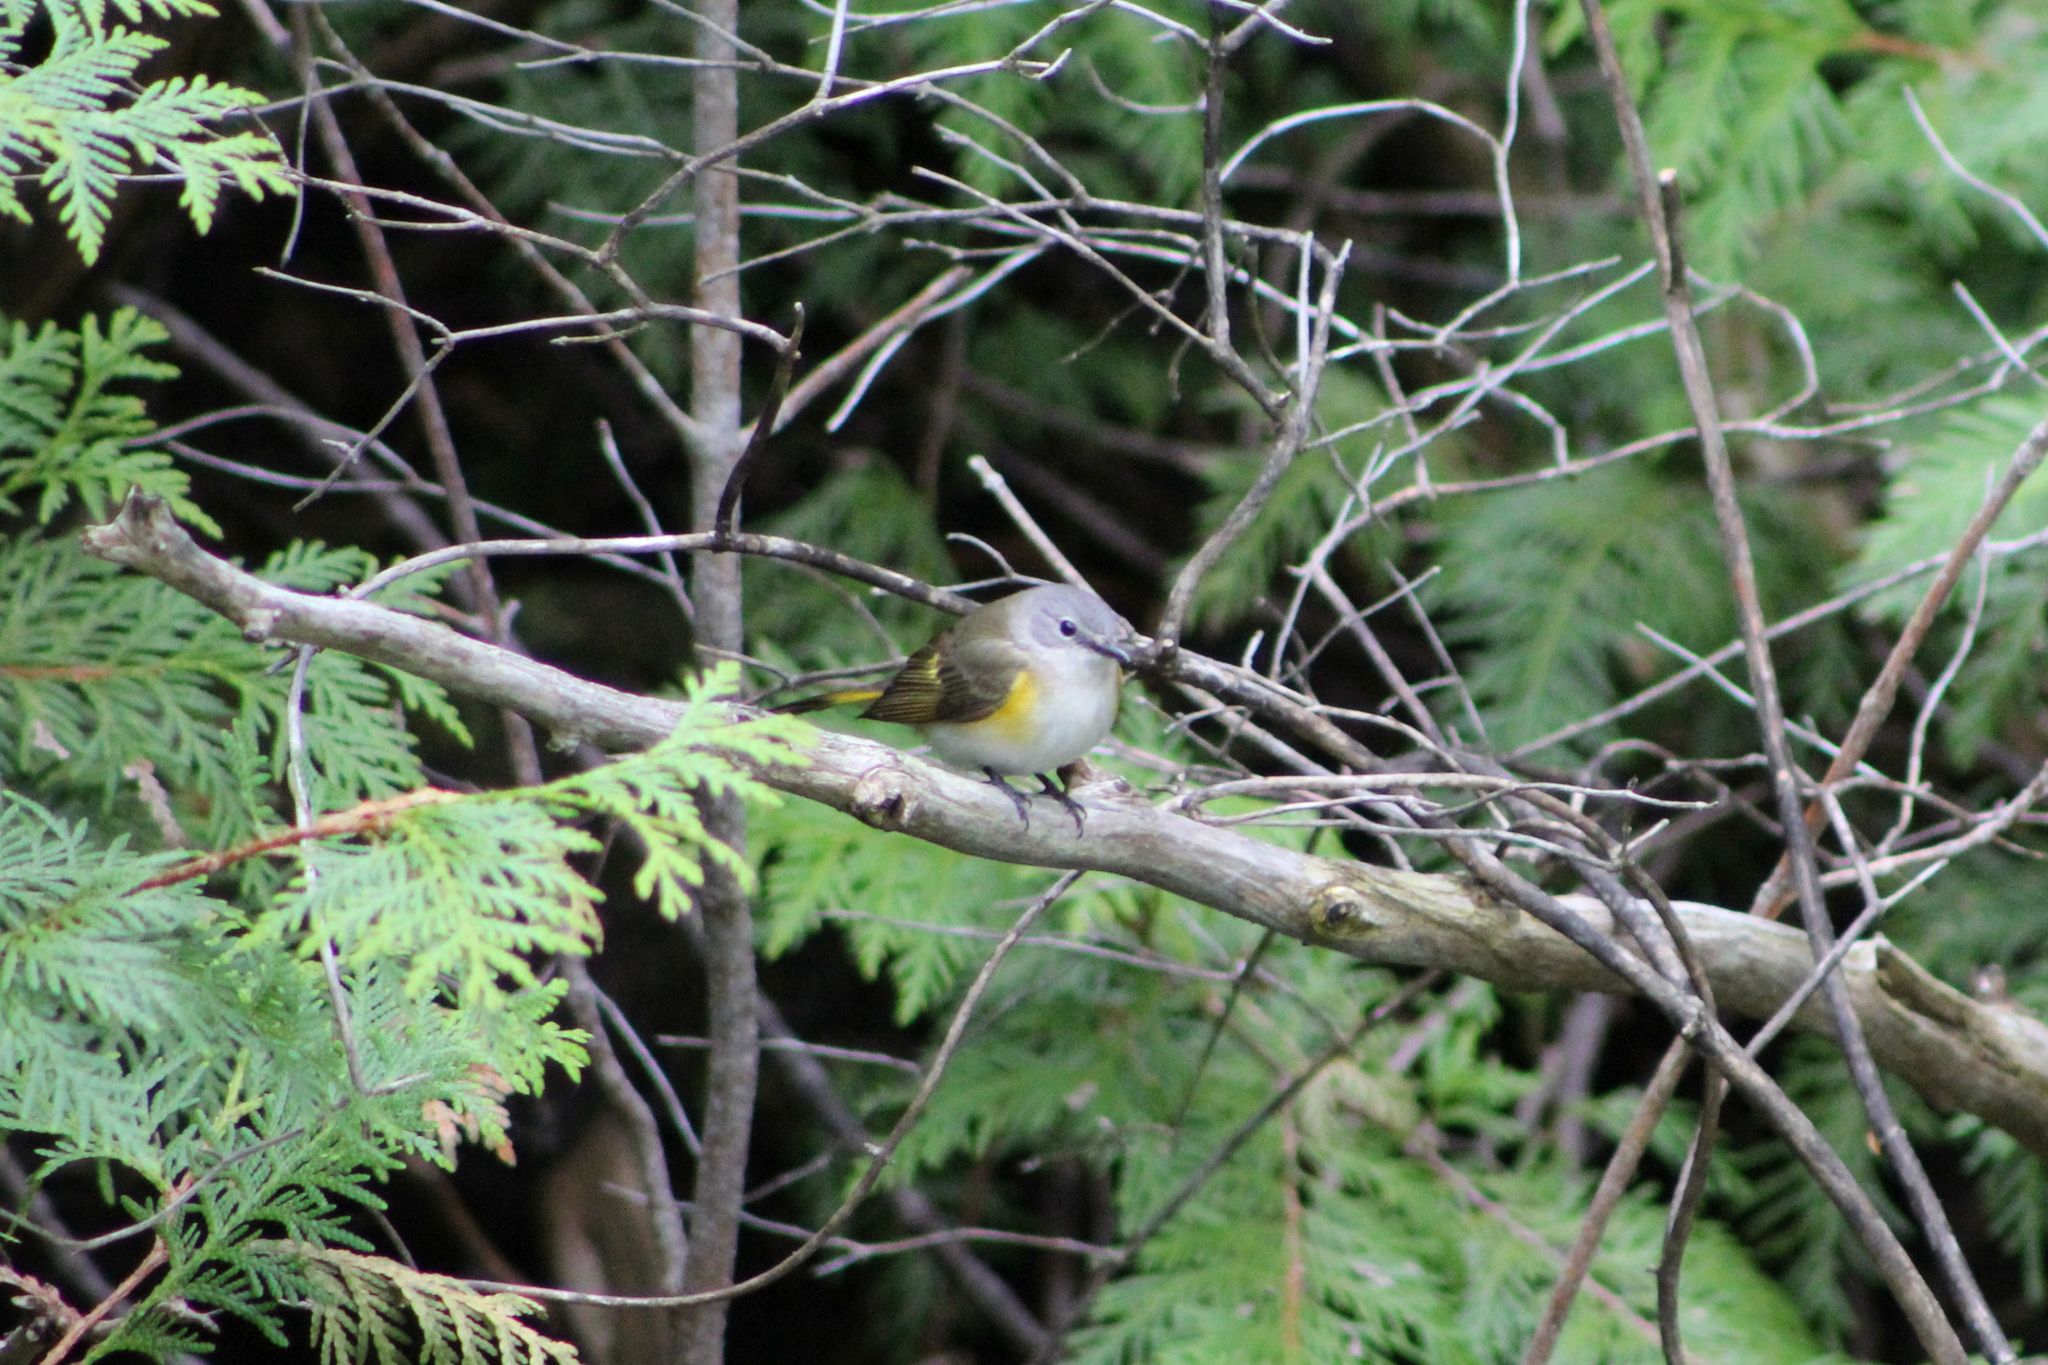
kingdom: Animalia
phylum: Chordata
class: Aves
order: Passeriformes
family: Parulidae
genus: Setophaga
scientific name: Setophaga ruticilla
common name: American redstart
